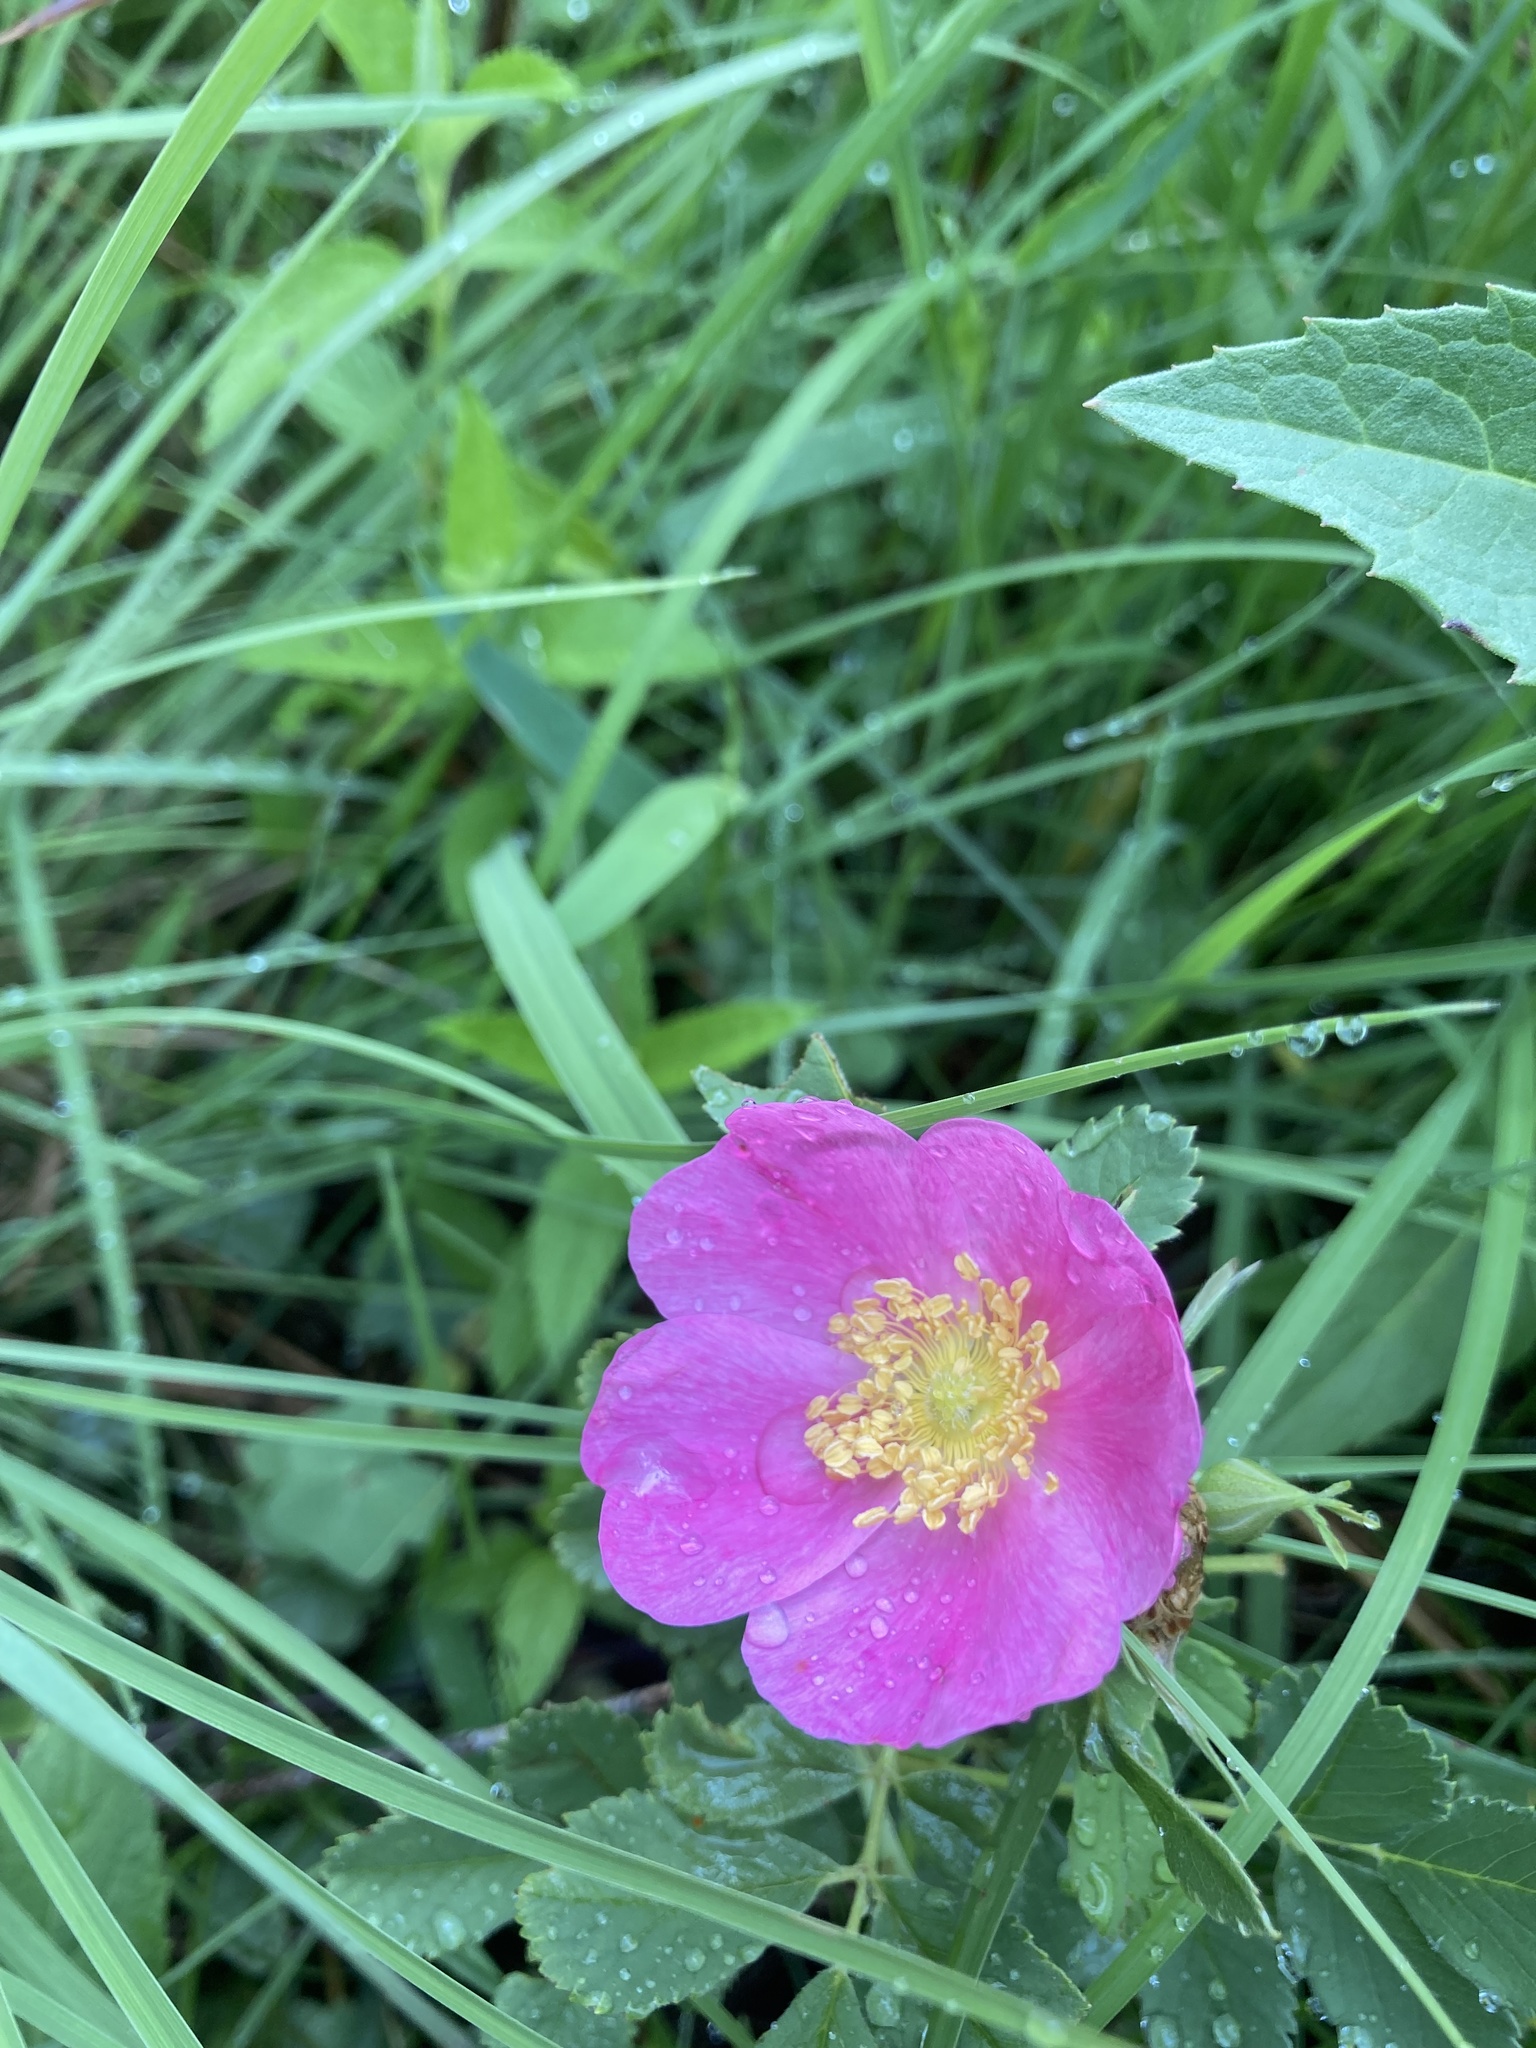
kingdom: Plantae
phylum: Tracheophyta
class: Magnoliopsida
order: Rosales
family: Rosaceae
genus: Rosa
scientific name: Rosa arkansana
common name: Prairie rose
